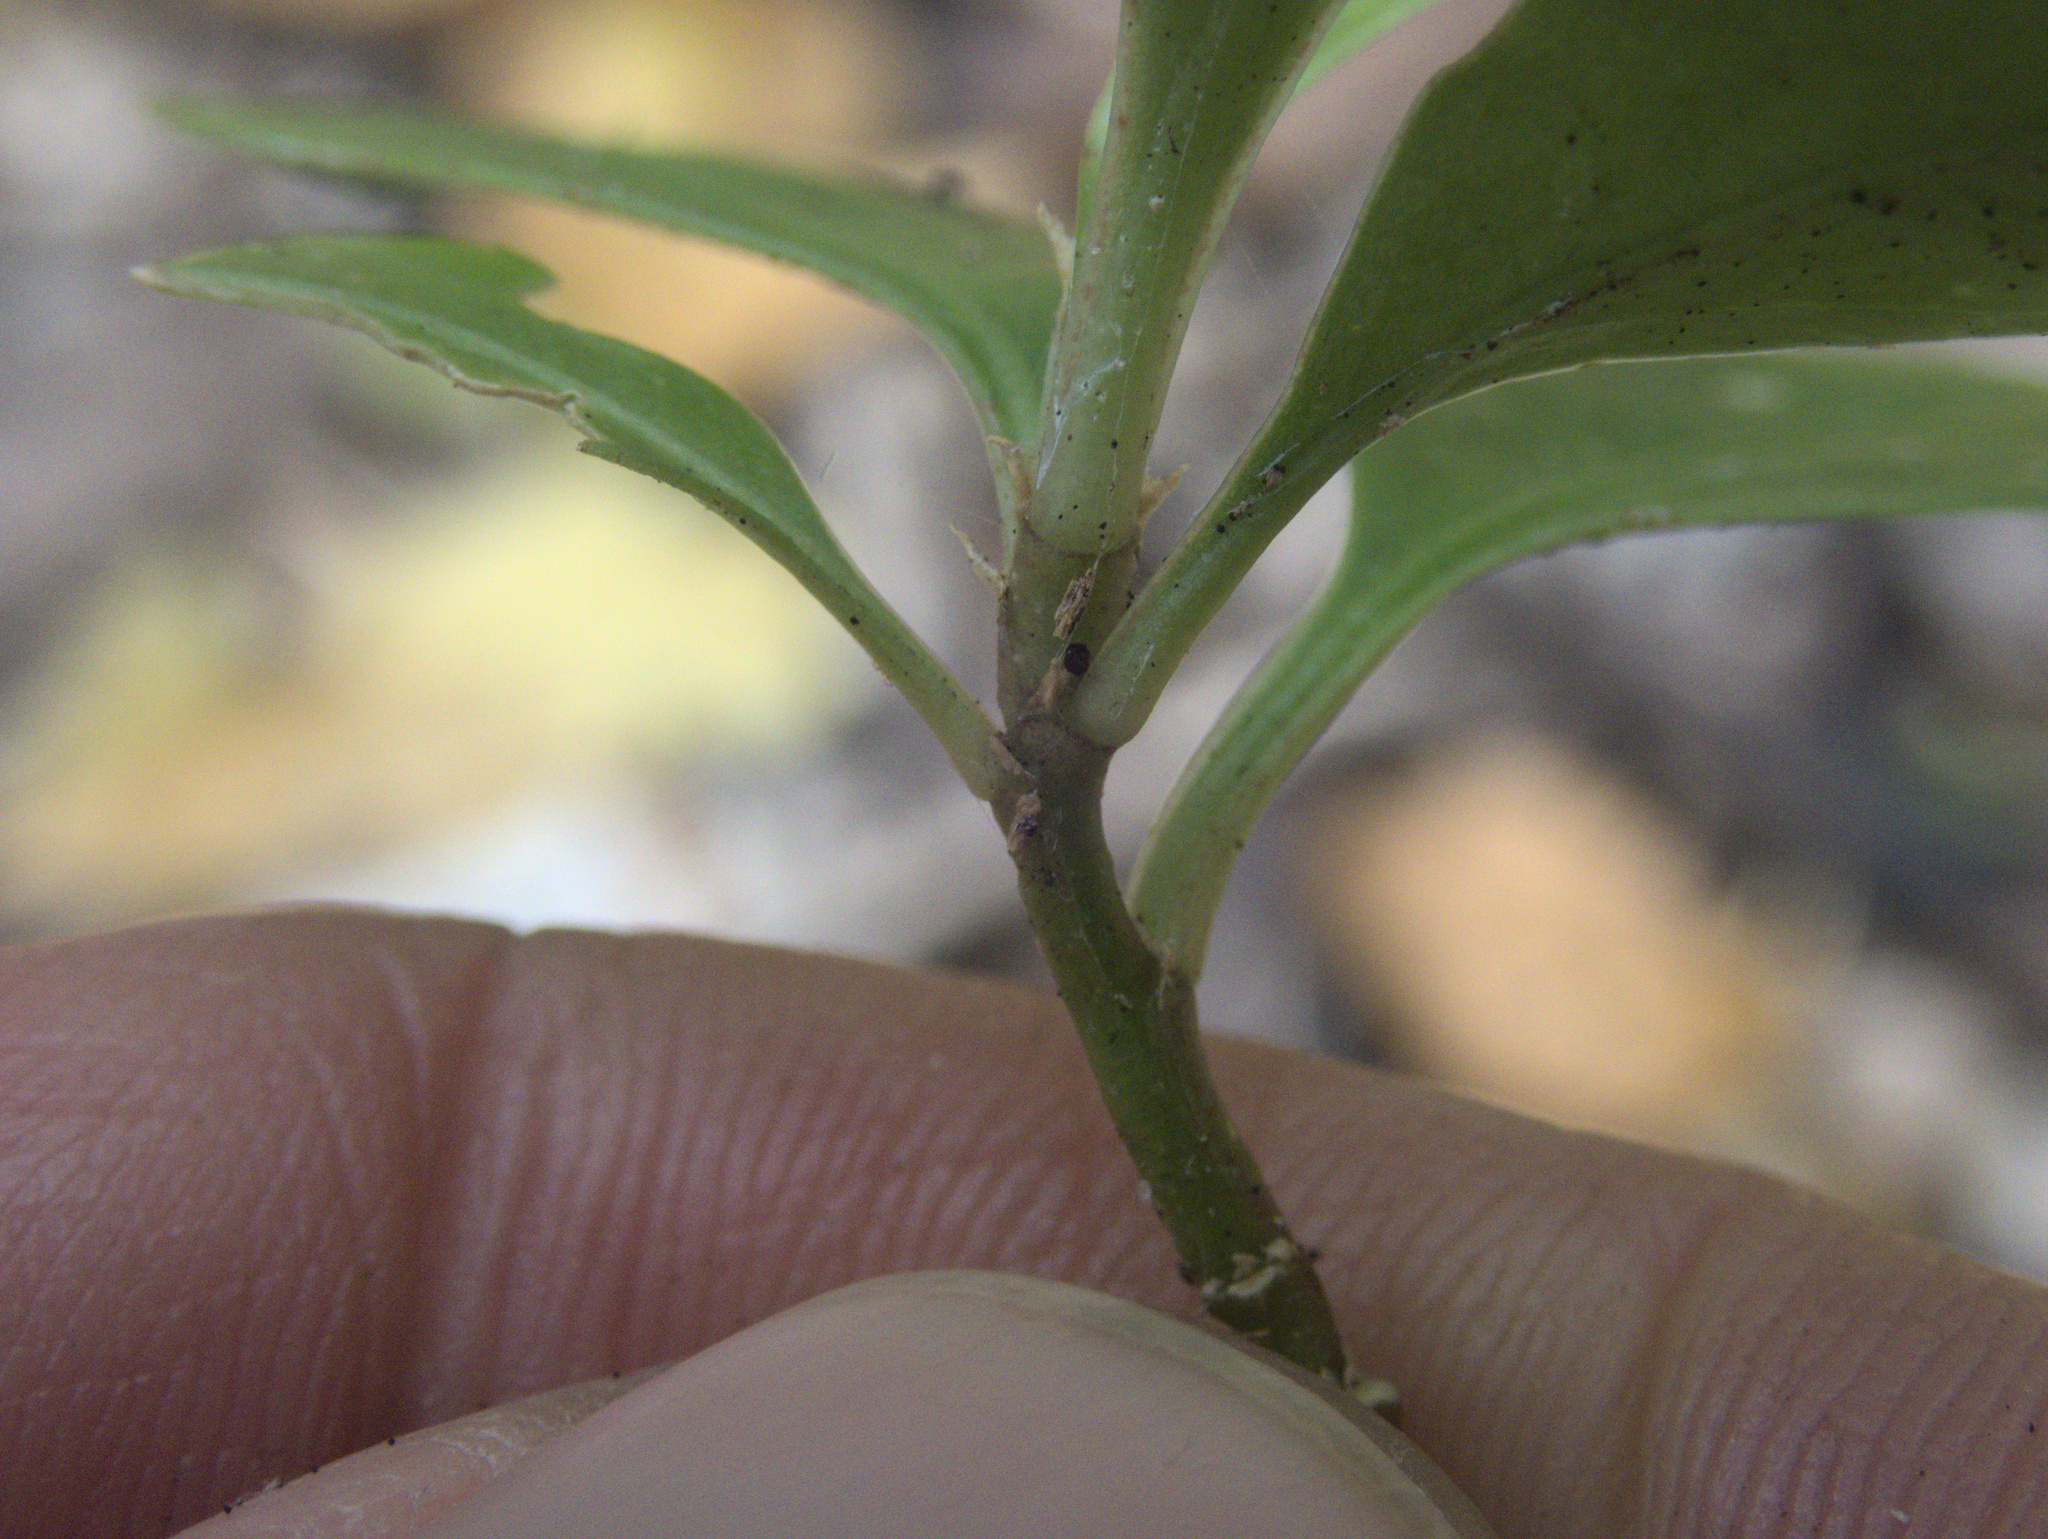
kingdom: Plantae
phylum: Tracheophyta
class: Magnoliopsida
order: Malpighiales
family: Violaceae
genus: Melicytus
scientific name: Melicytus chathamicus
